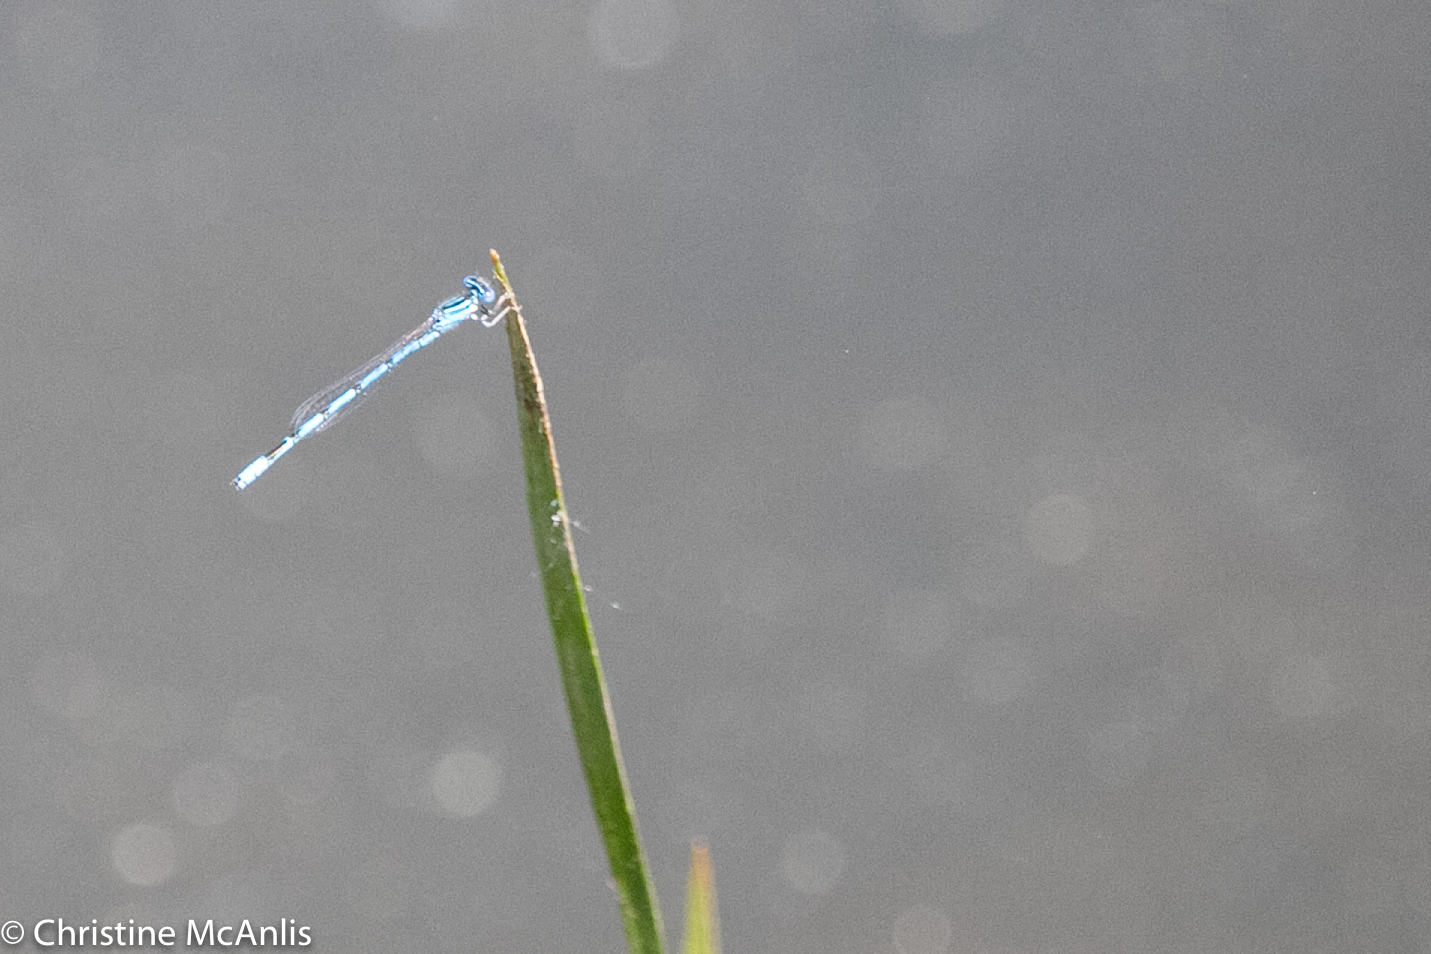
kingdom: Animalia
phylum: Arthropoda
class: Insecta
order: Odonata
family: Coenagrionidae
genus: Enallagma
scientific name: Enallagma basidens
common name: Double-striped bluet
